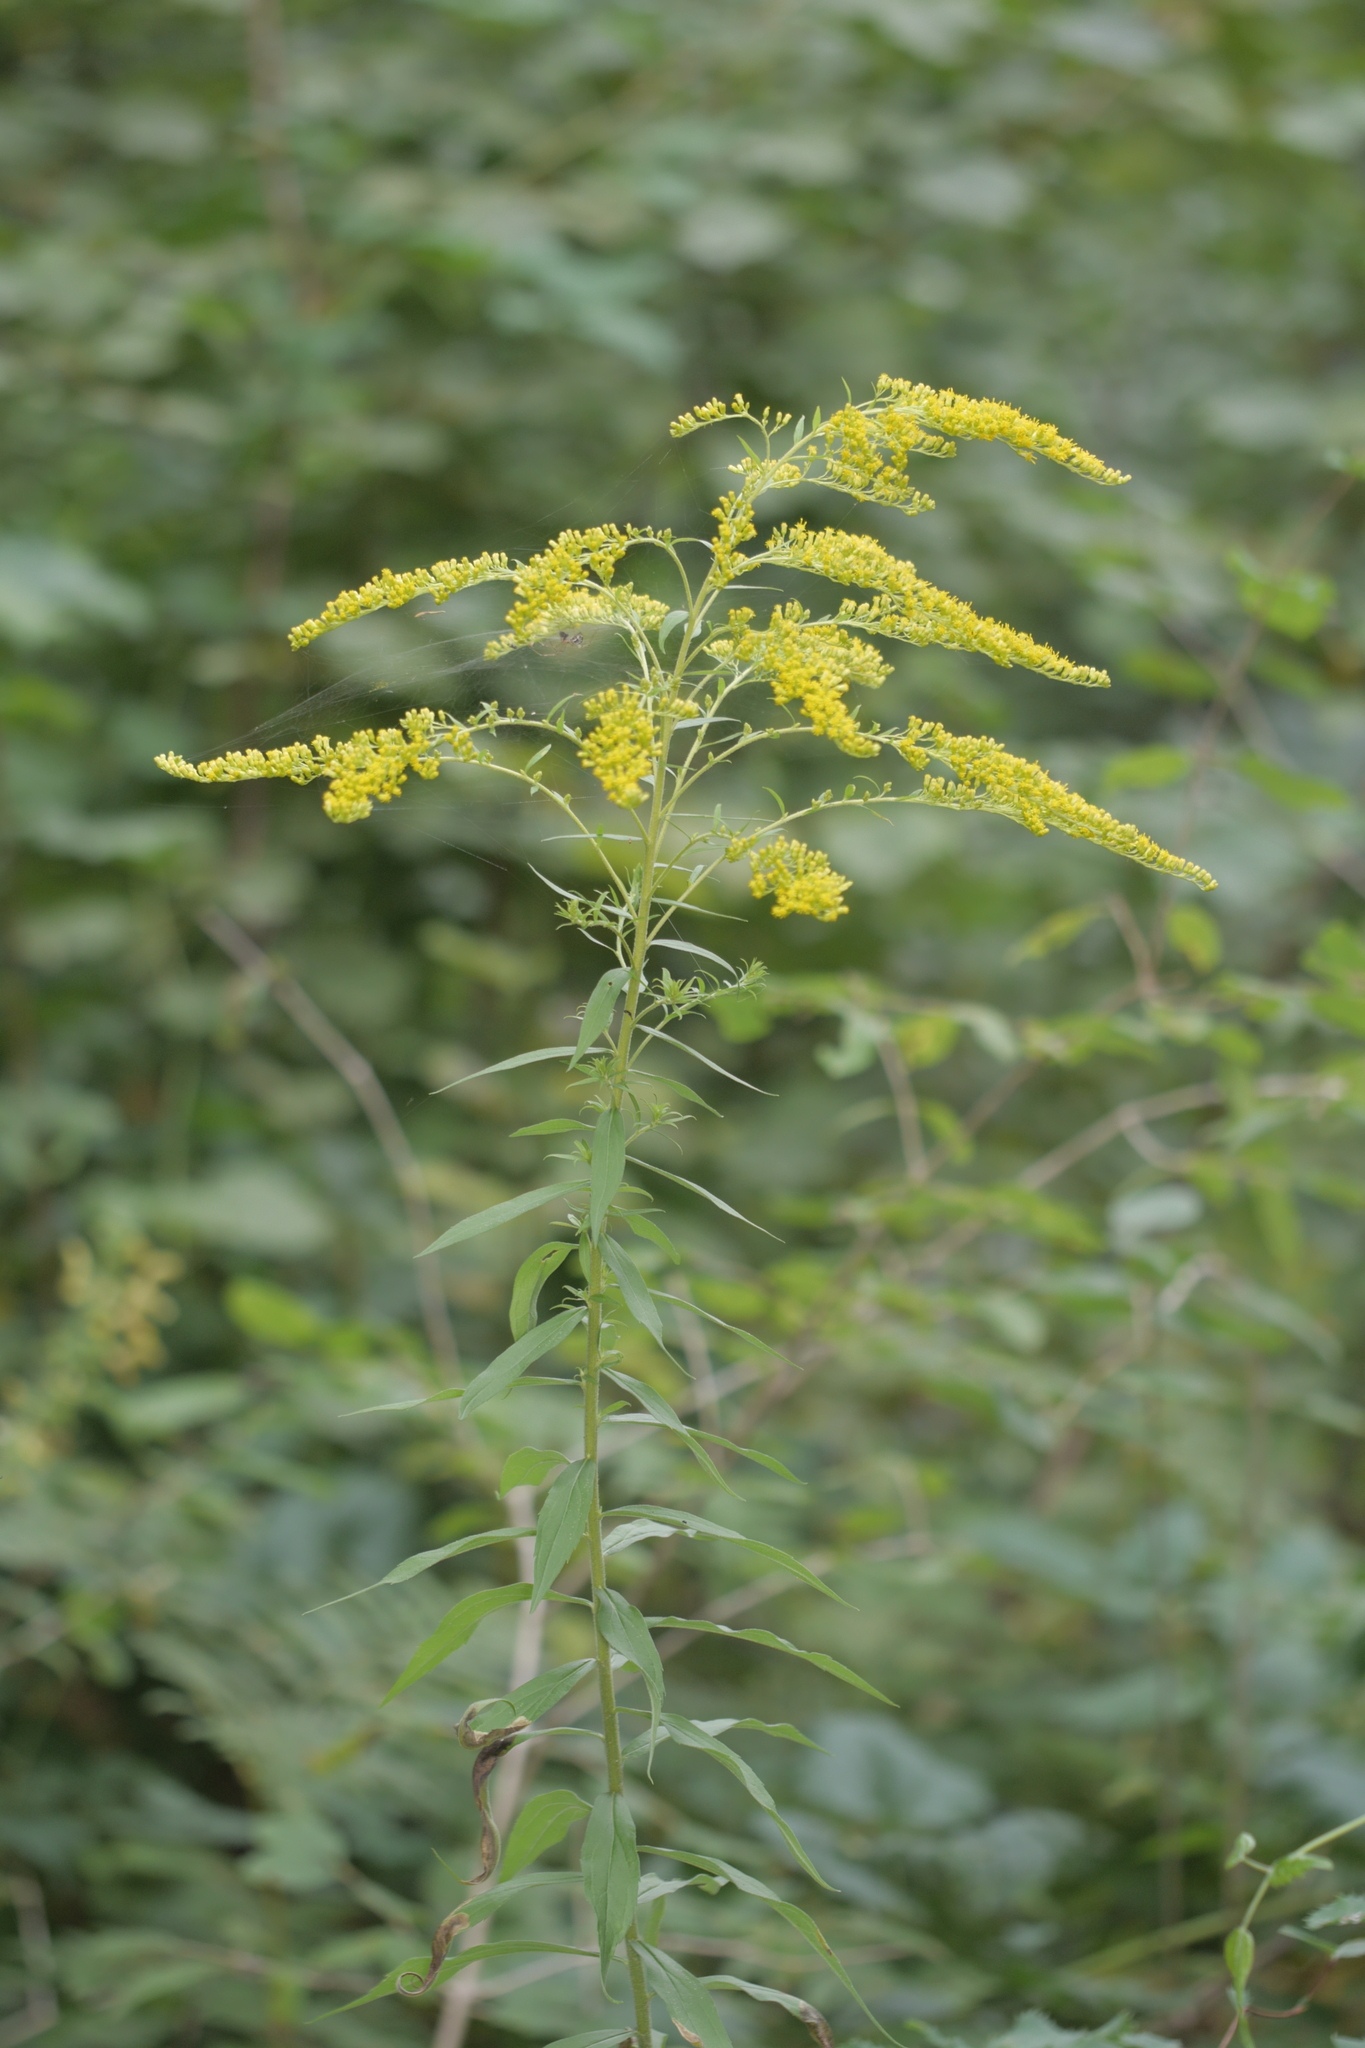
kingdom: Plantae
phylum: Tracheophyta
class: Magnoliopsida
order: Asterales
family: Asteraceae
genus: Solidago
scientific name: Solidago canadensis
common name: Canada goldenrod
